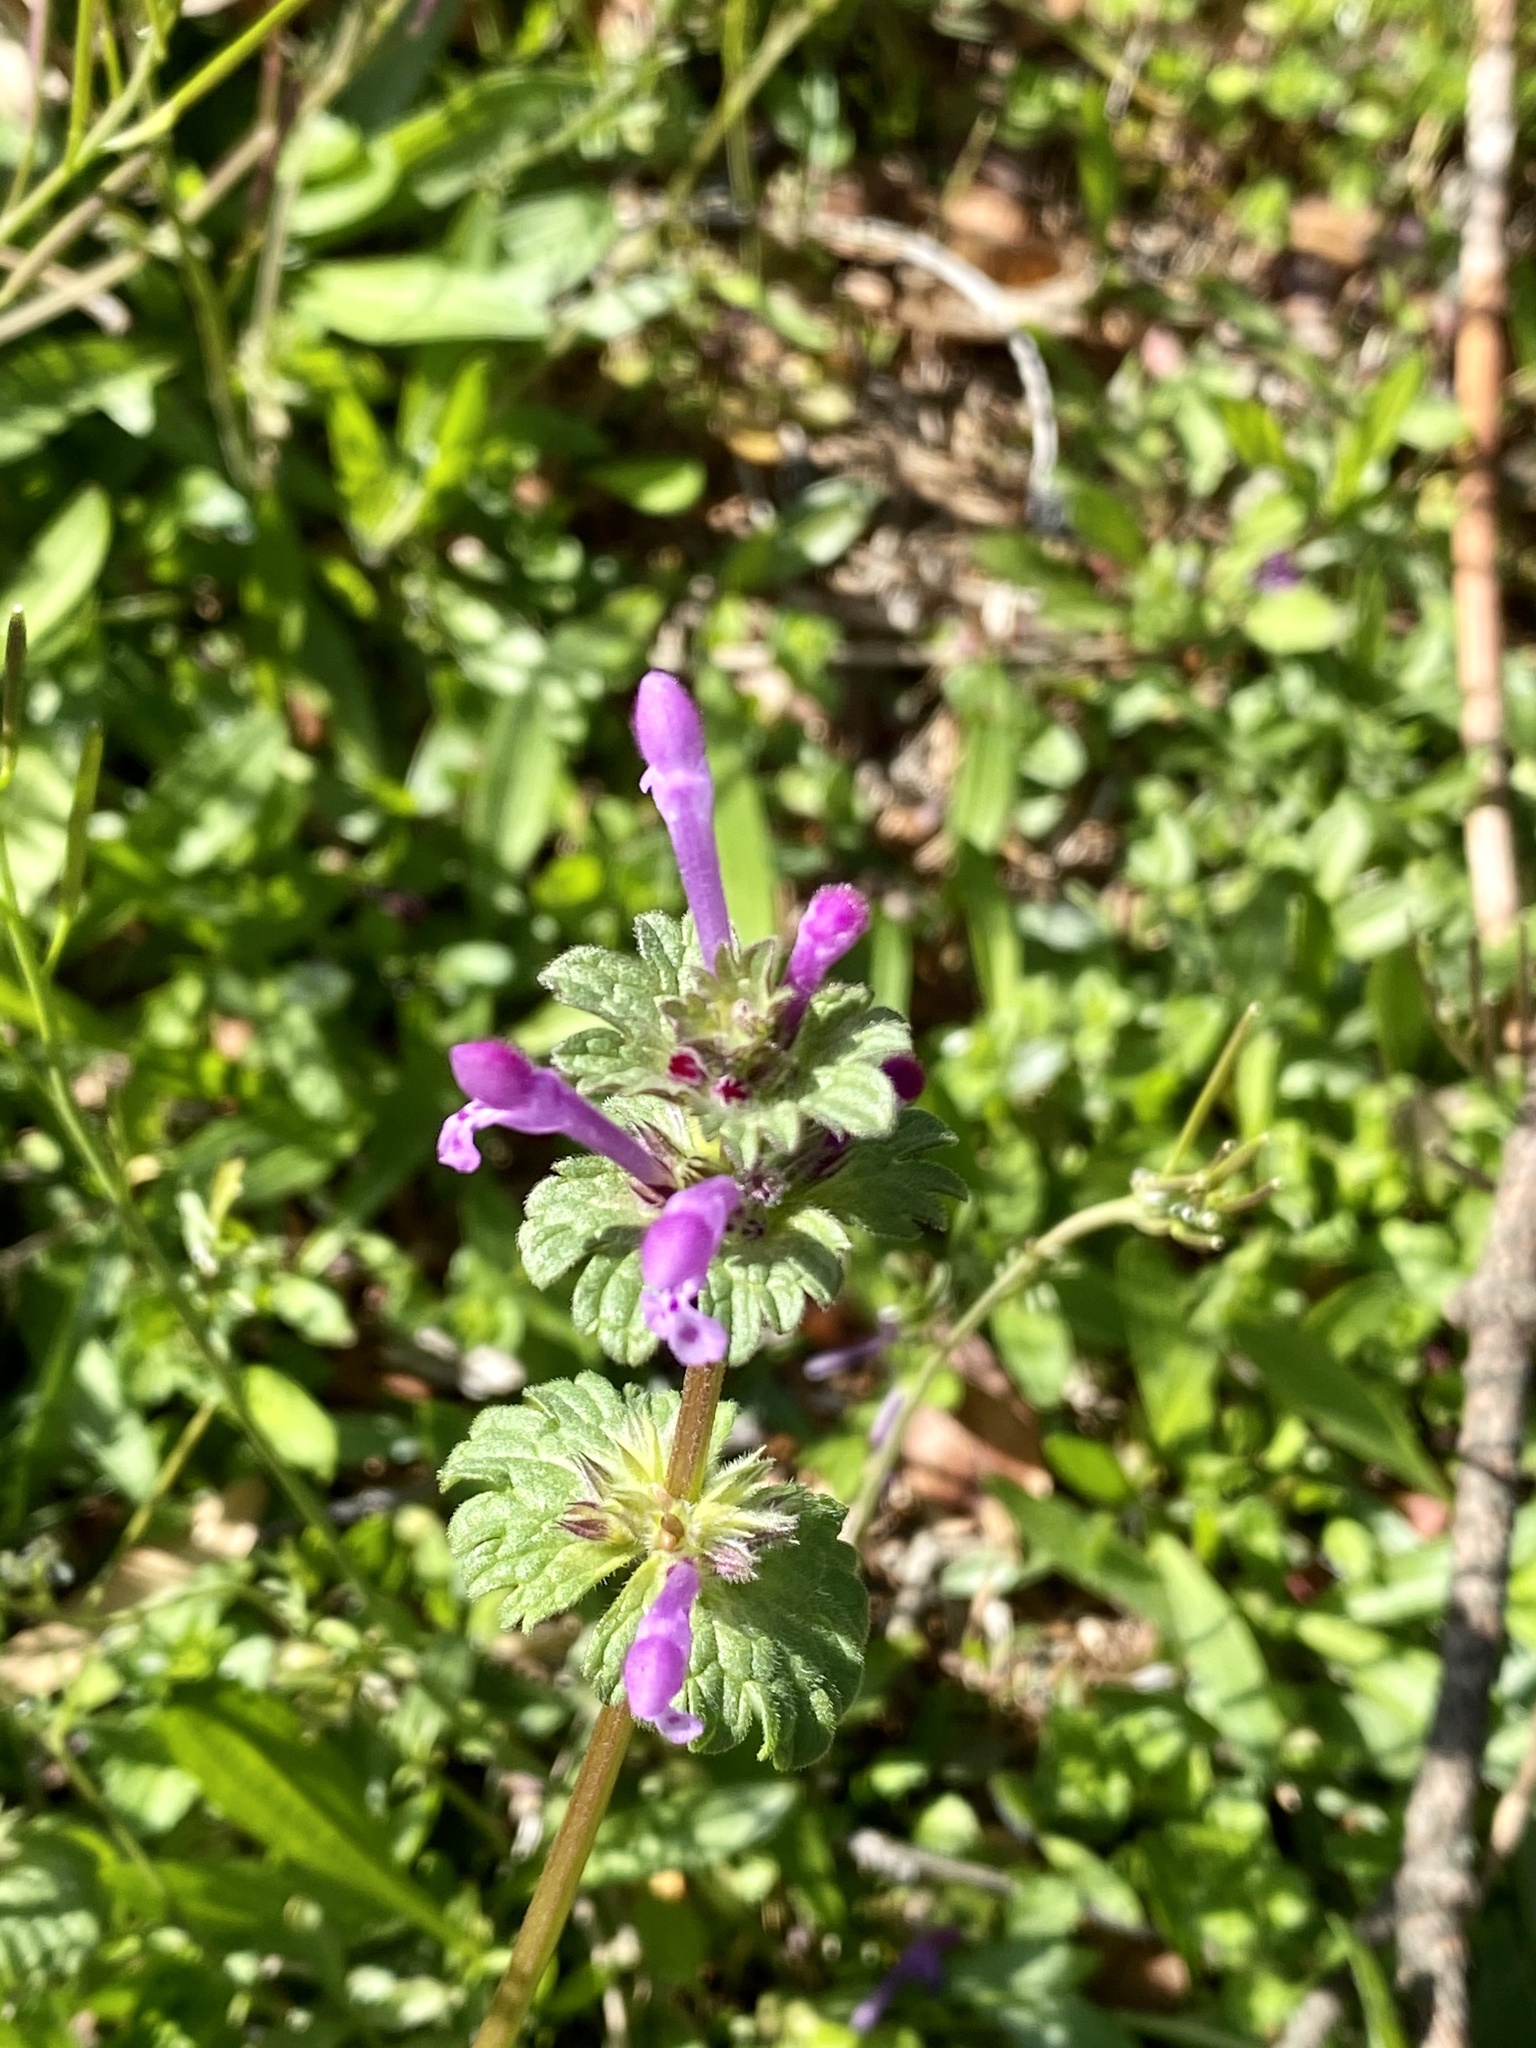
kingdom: Plantae
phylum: Tracheophyta
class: Magnoliopsida
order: Lamiales
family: Lamiaceae
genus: Lamium
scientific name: Lamium amplexicaule
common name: Henbit dead-nettle
